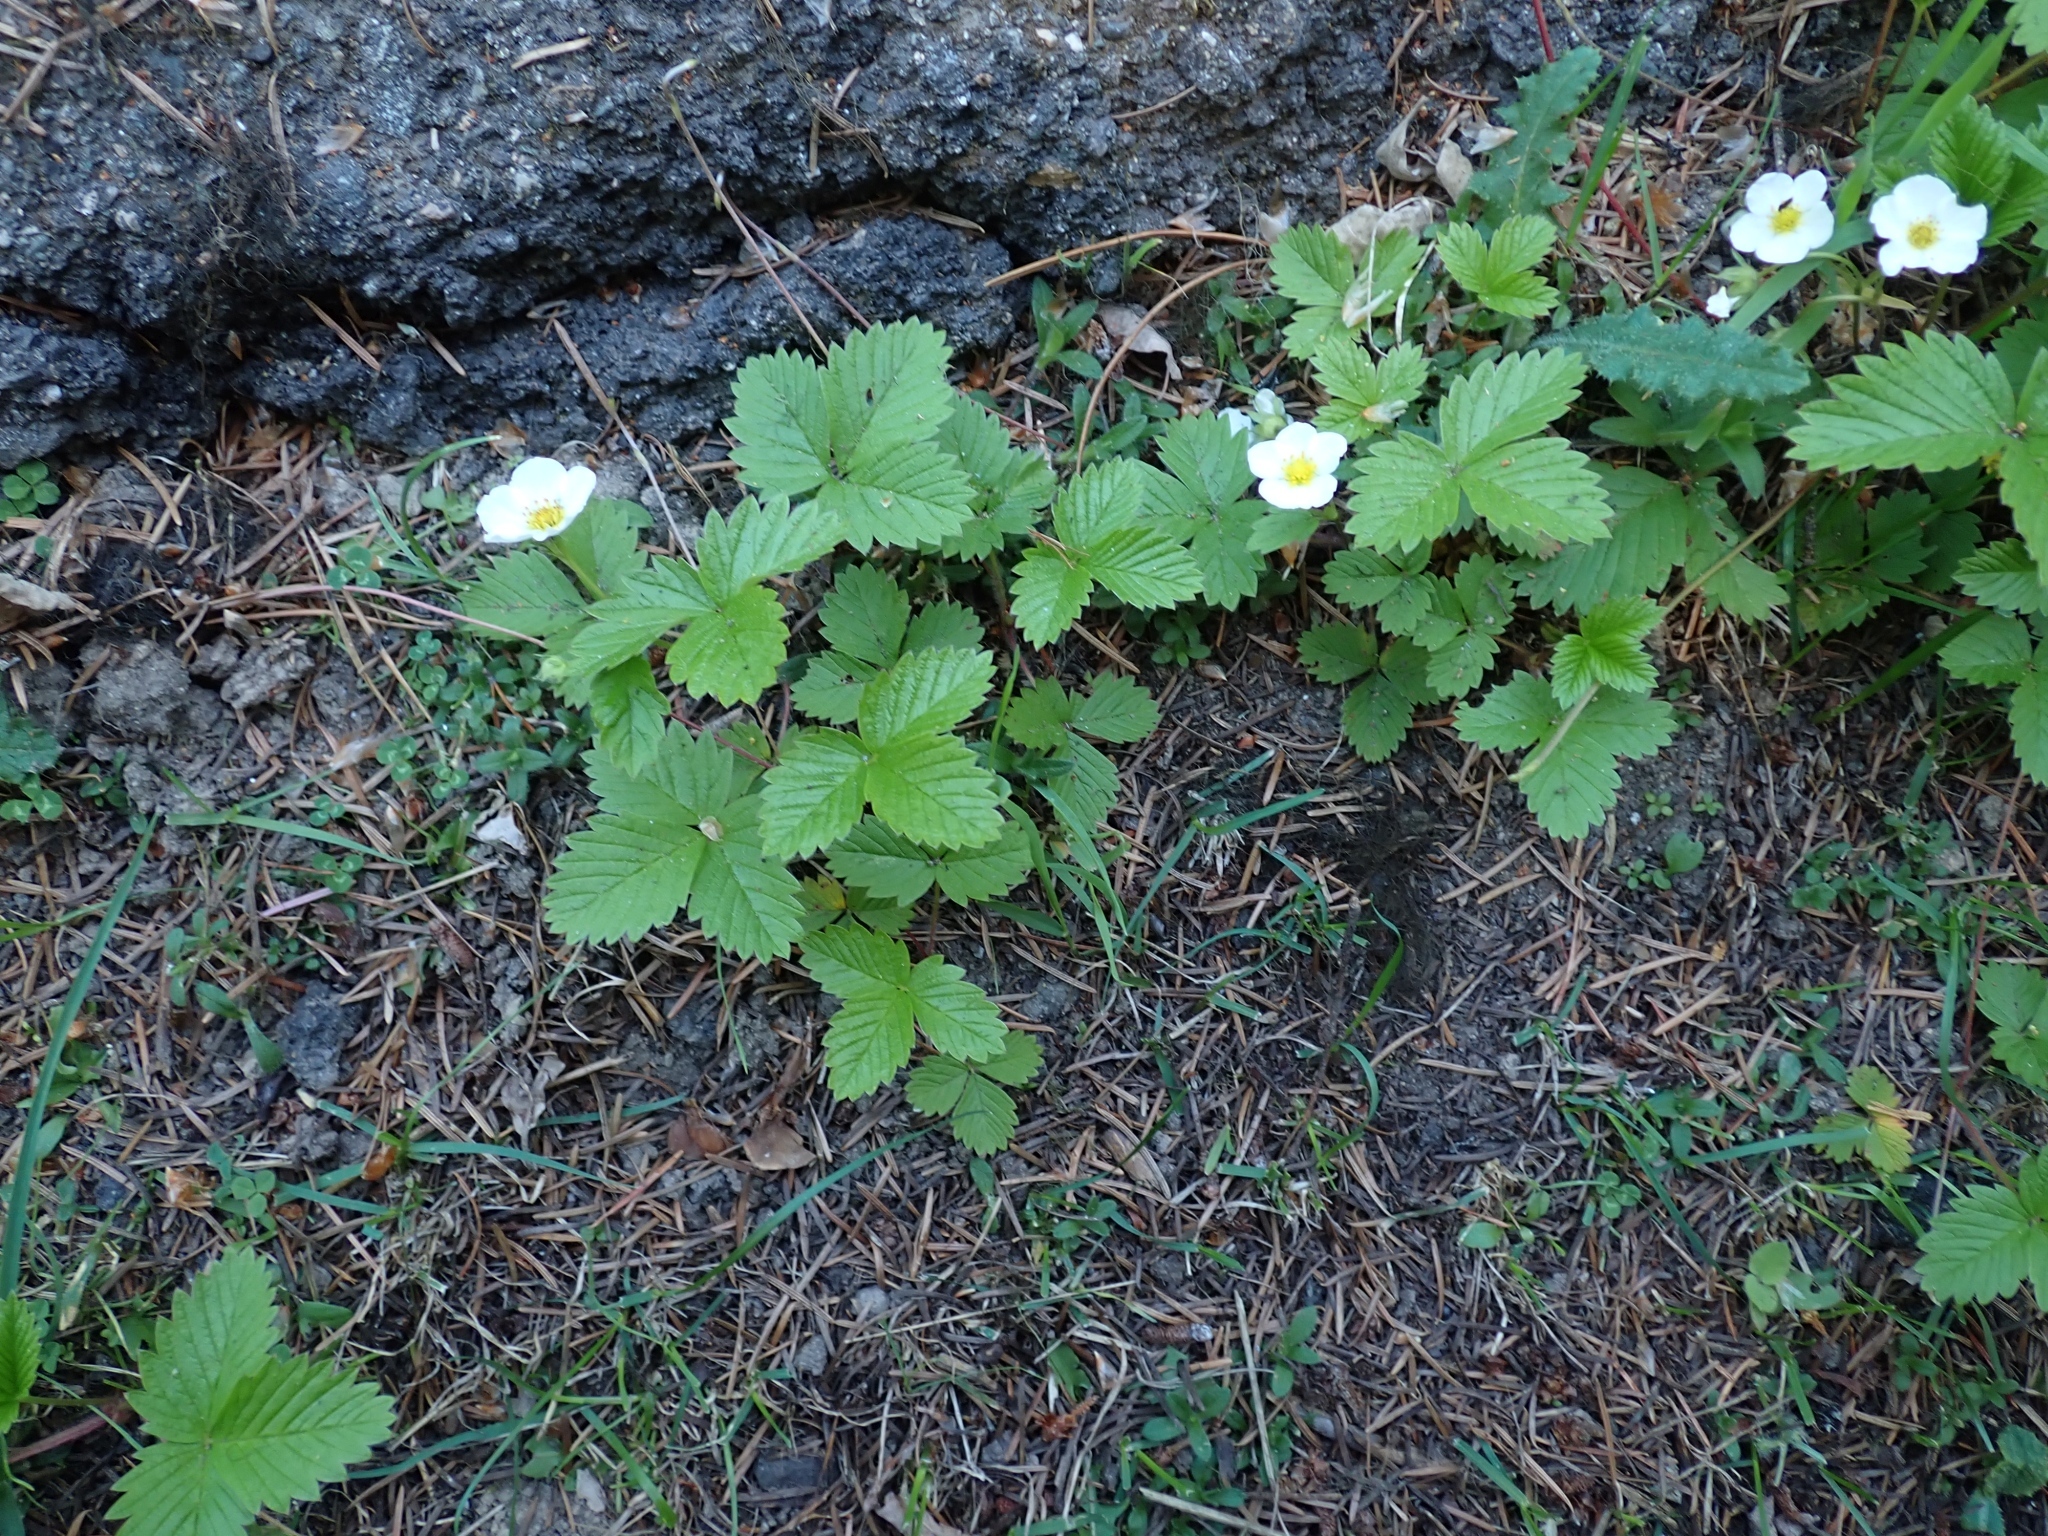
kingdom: Plantae
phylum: Tracheophyta
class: Magnoliopsida
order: Rosales
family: Rosaceae
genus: Fragaria
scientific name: Fragaria vesca
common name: Wild strawberry
